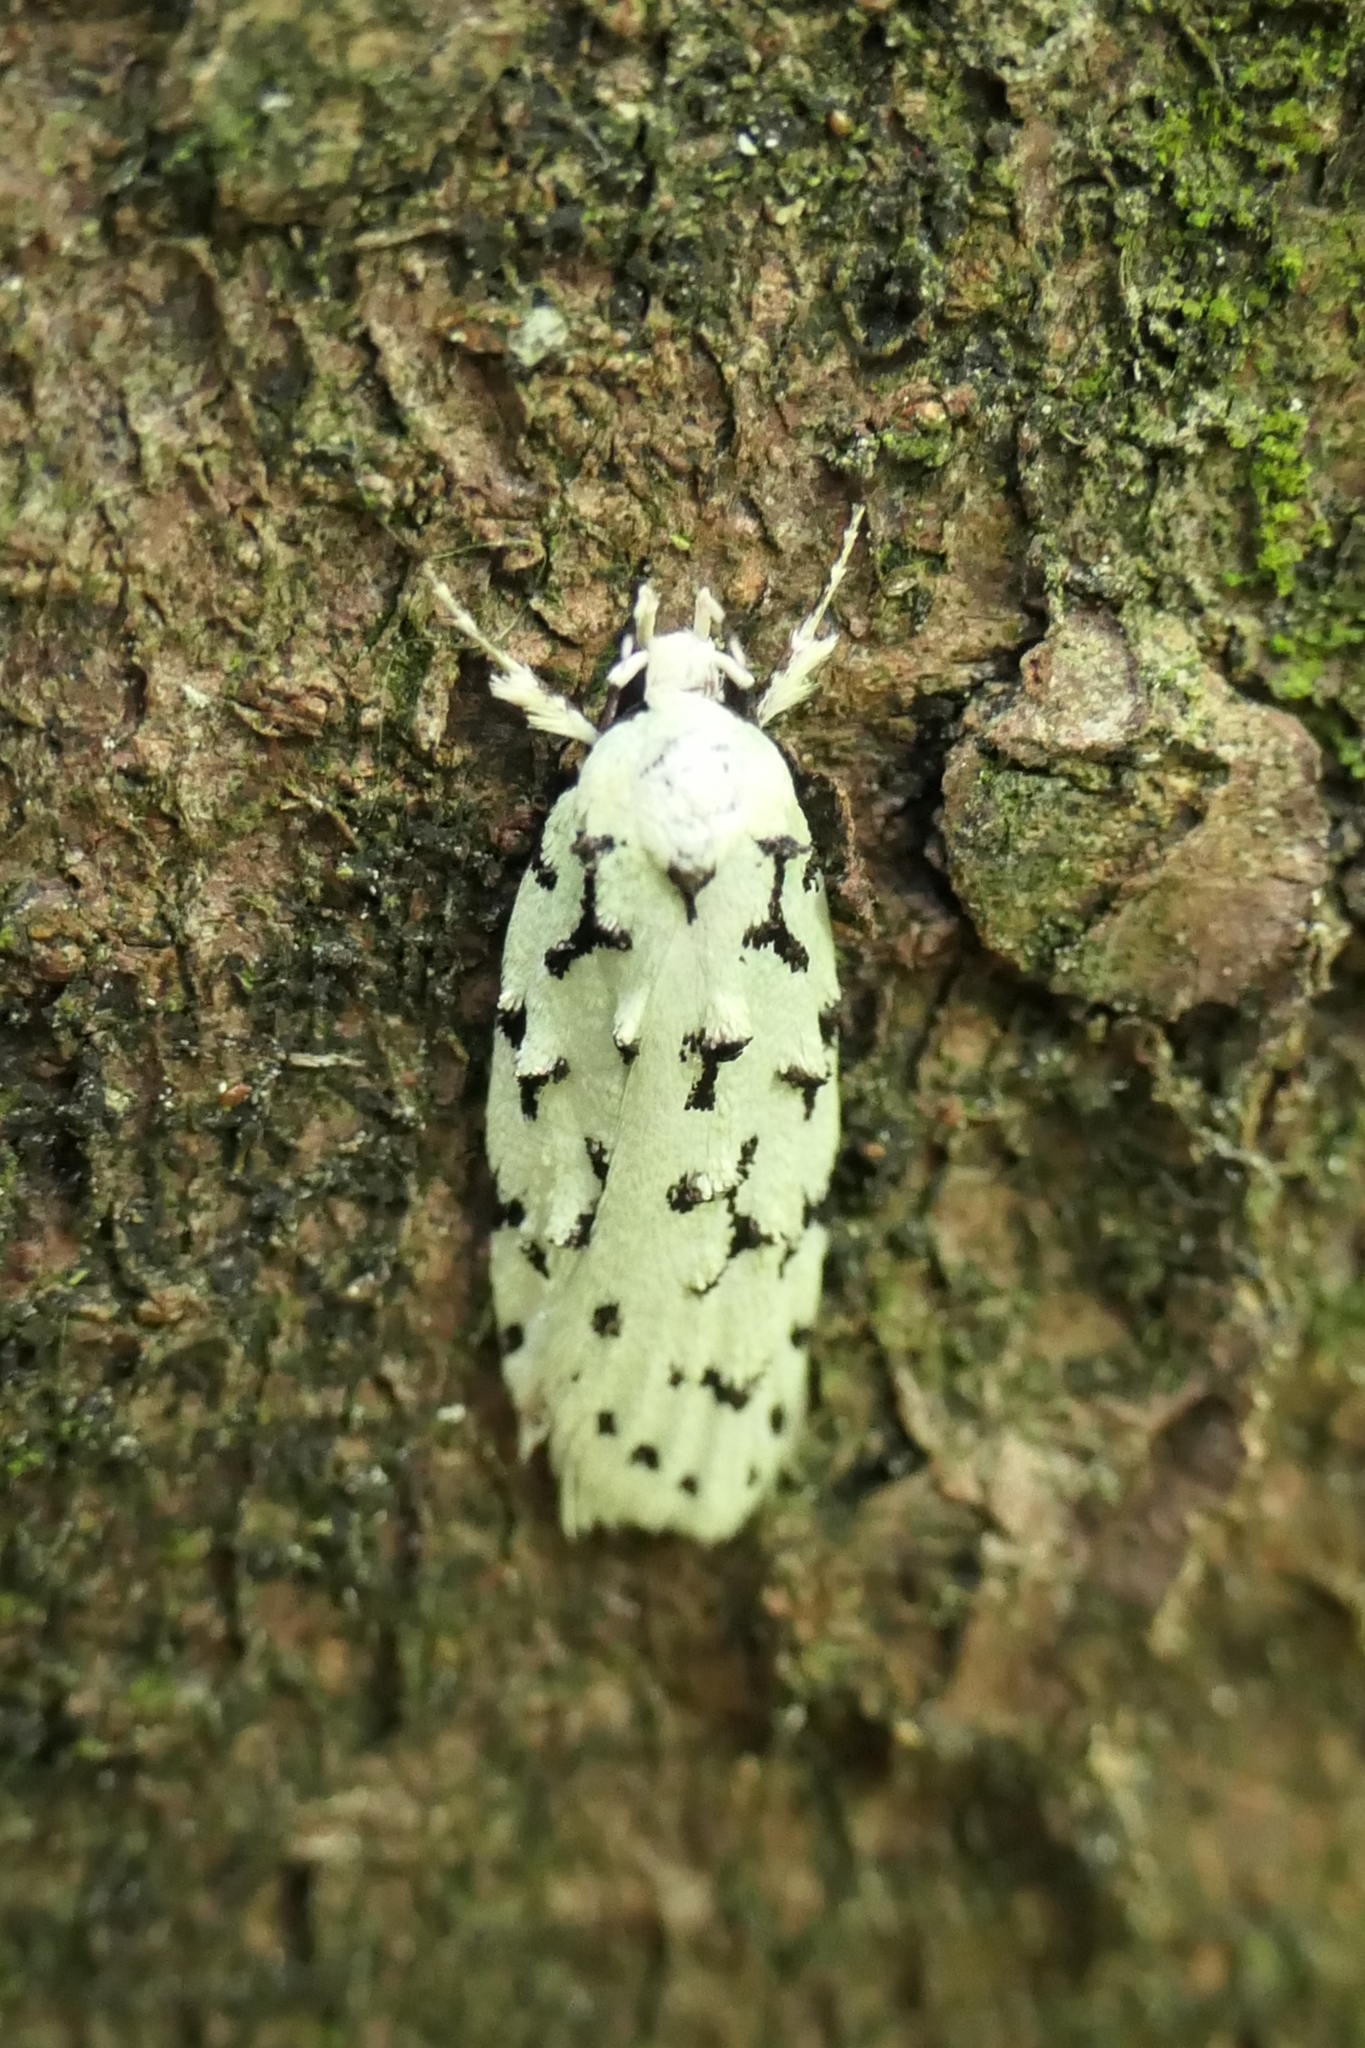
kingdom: Animalia
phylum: Arthropoda
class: Insecta
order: Lepidoptera
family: Oecophoridae
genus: Izatha
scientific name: Izatha huttoni
